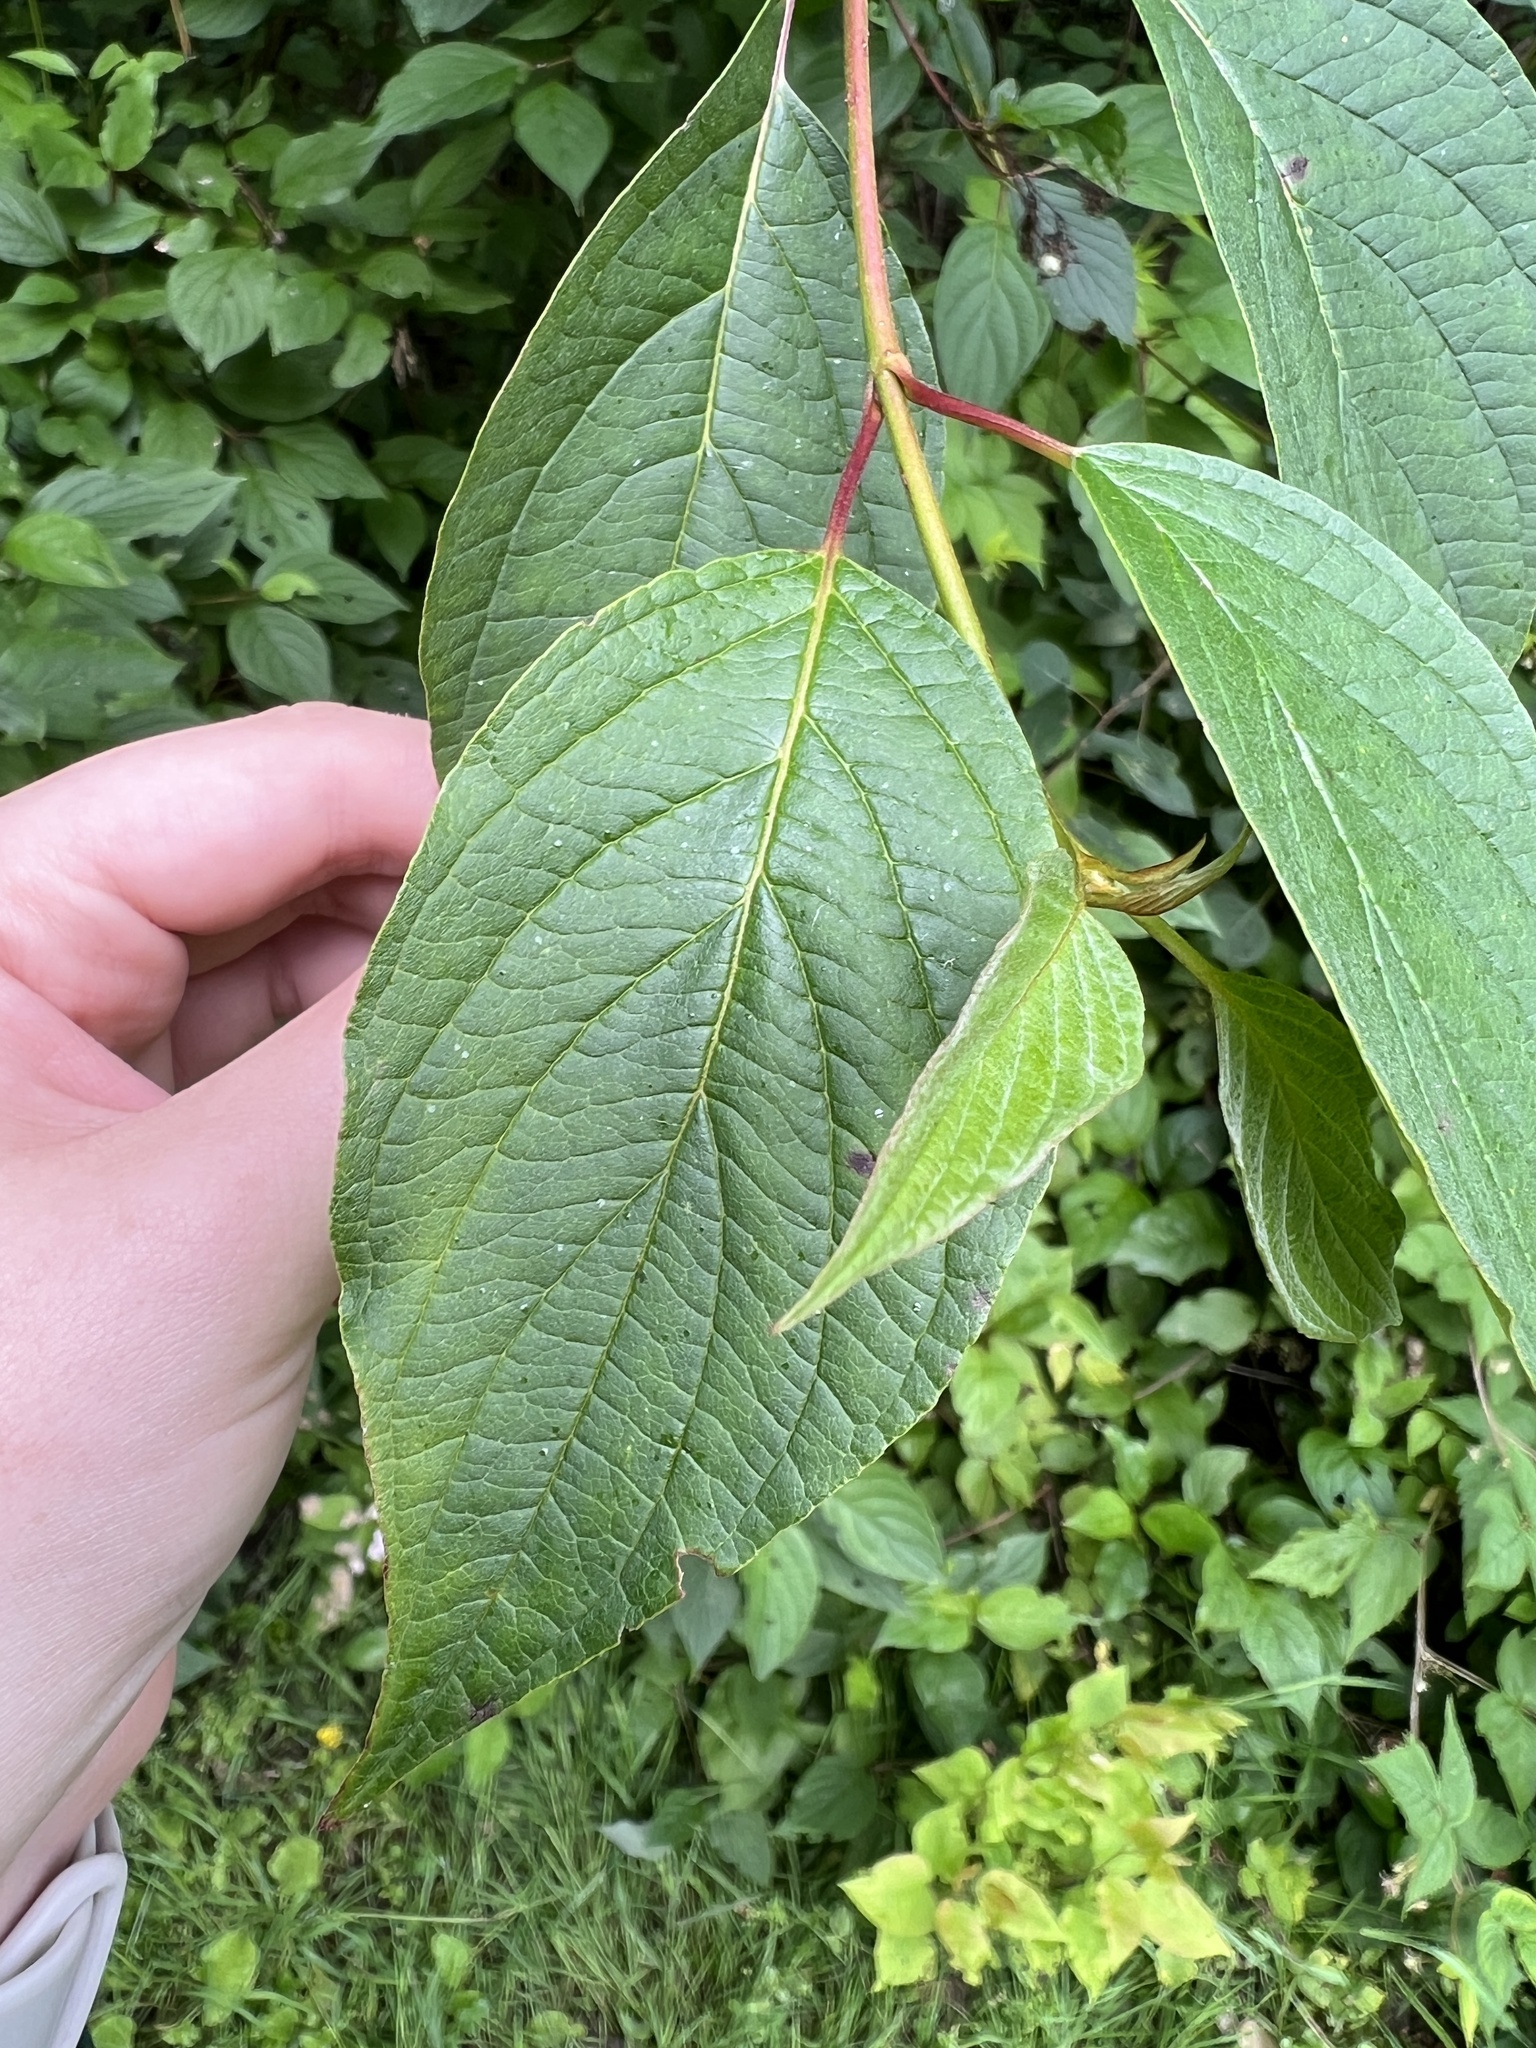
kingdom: Plantae
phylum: Tracheophyta
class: Magnoliopsida
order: Cornales
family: Cornaceae
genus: Cornus
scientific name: Cornus sericea
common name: Red-osier dogwood
